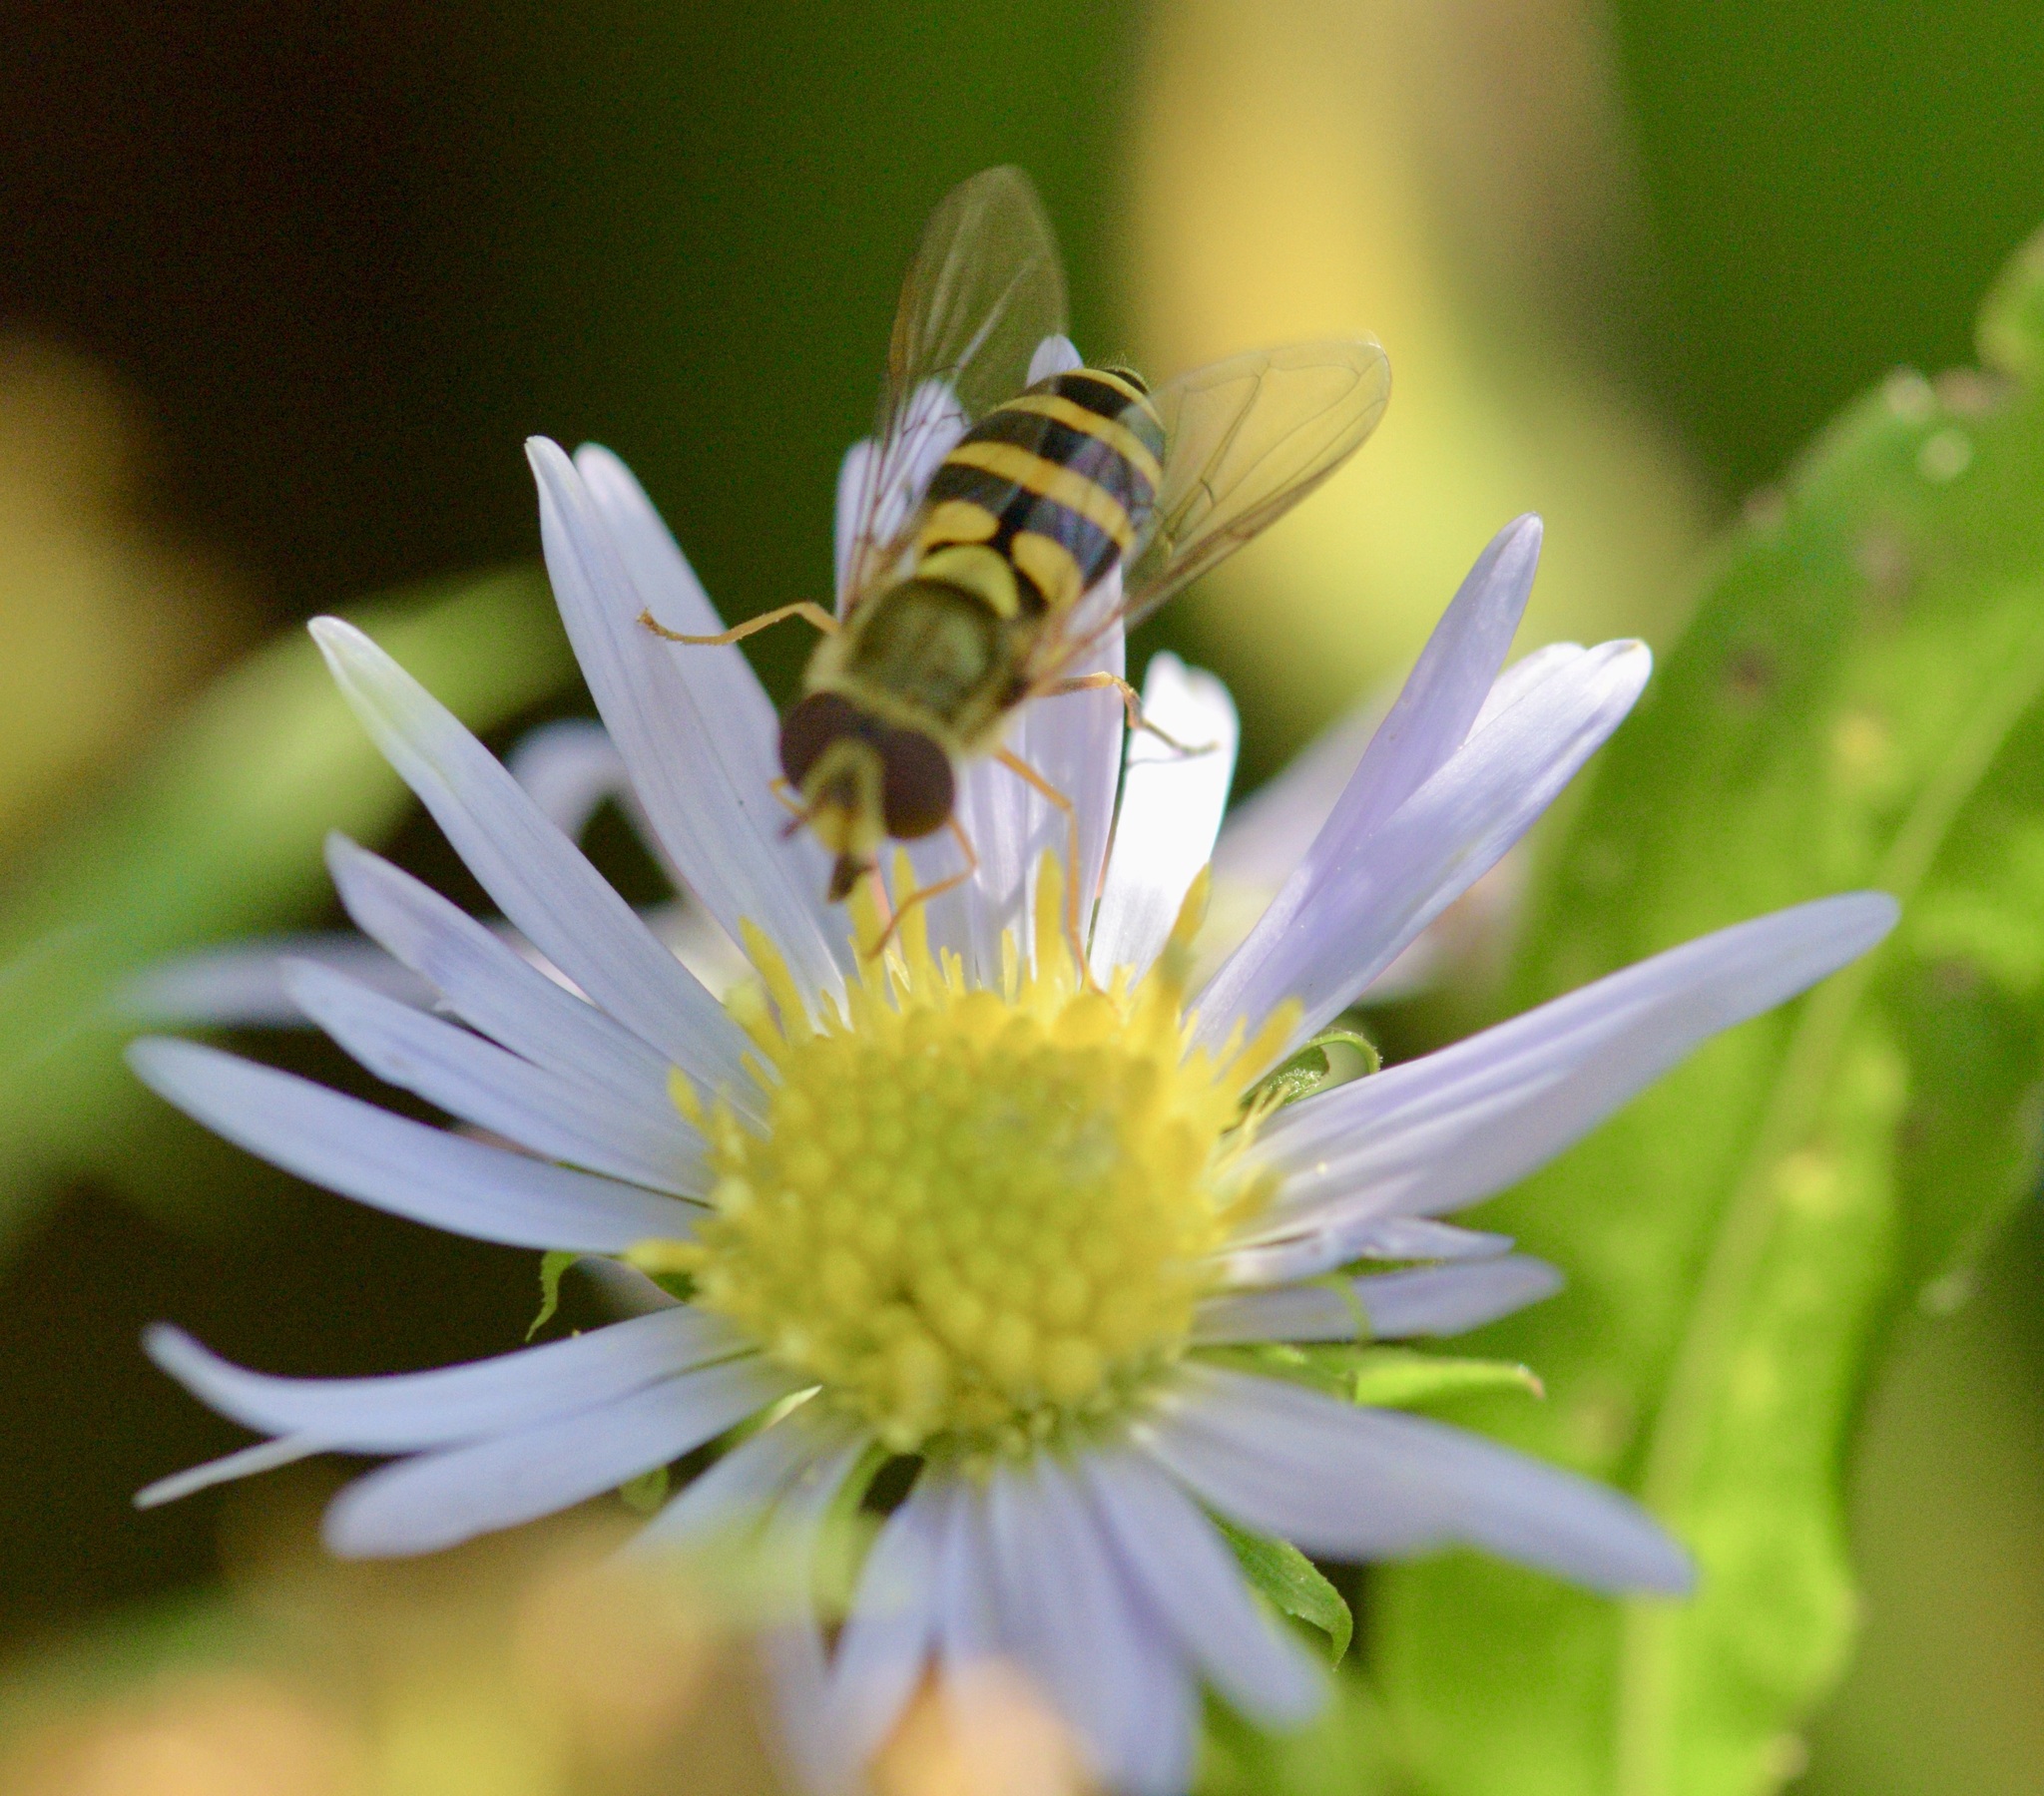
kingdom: Animalia
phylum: Arthropoda
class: Insecta
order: Diptera
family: Syrphidae
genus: Syrphus
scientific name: Syrphus rectus
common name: Yellow-legged flower fly
